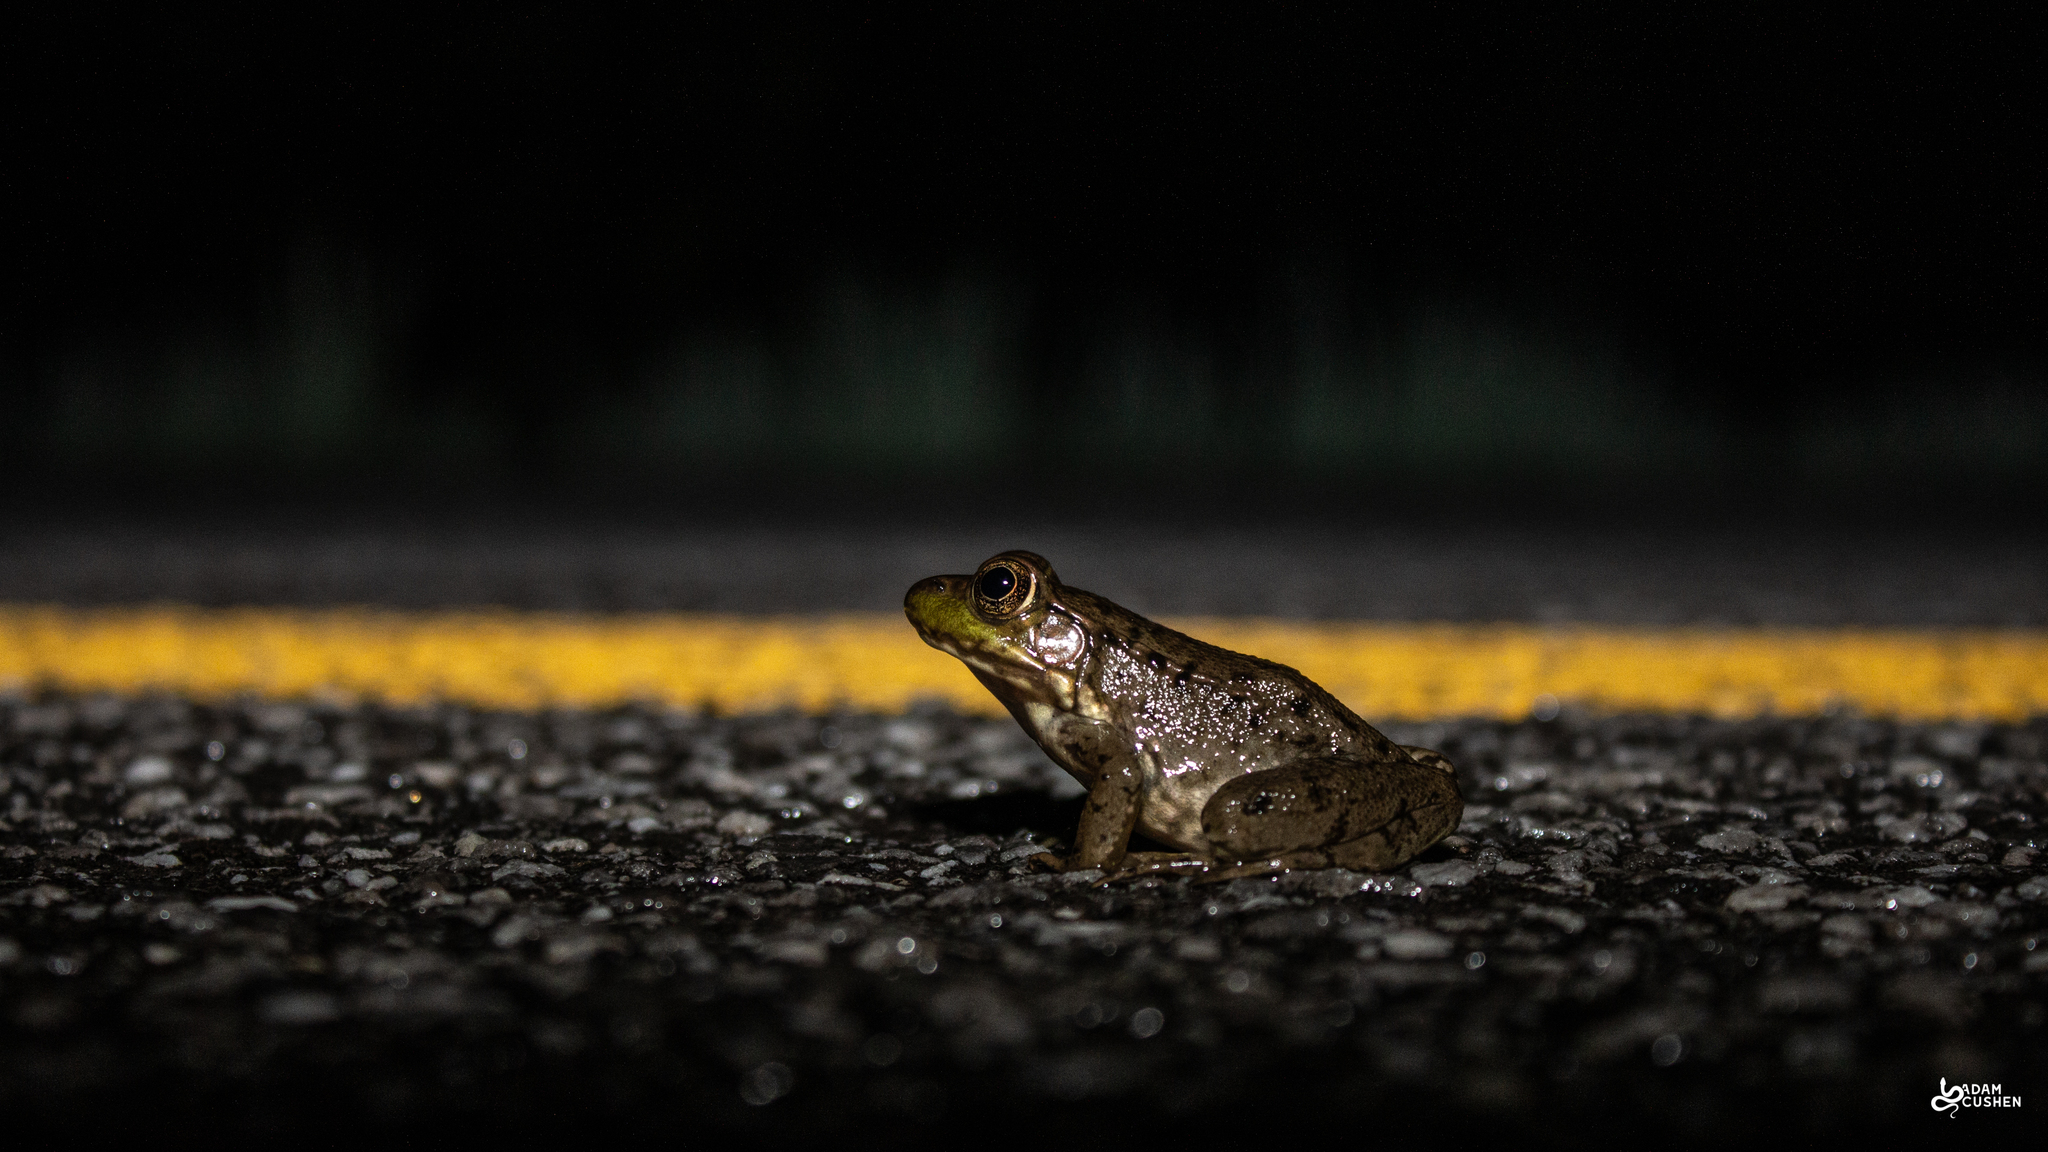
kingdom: Animalia
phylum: Chordata
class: Amphibia
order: Anura
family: Ranidae
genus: Lithobates
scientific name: Lithobates clamitans
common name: Green frog
